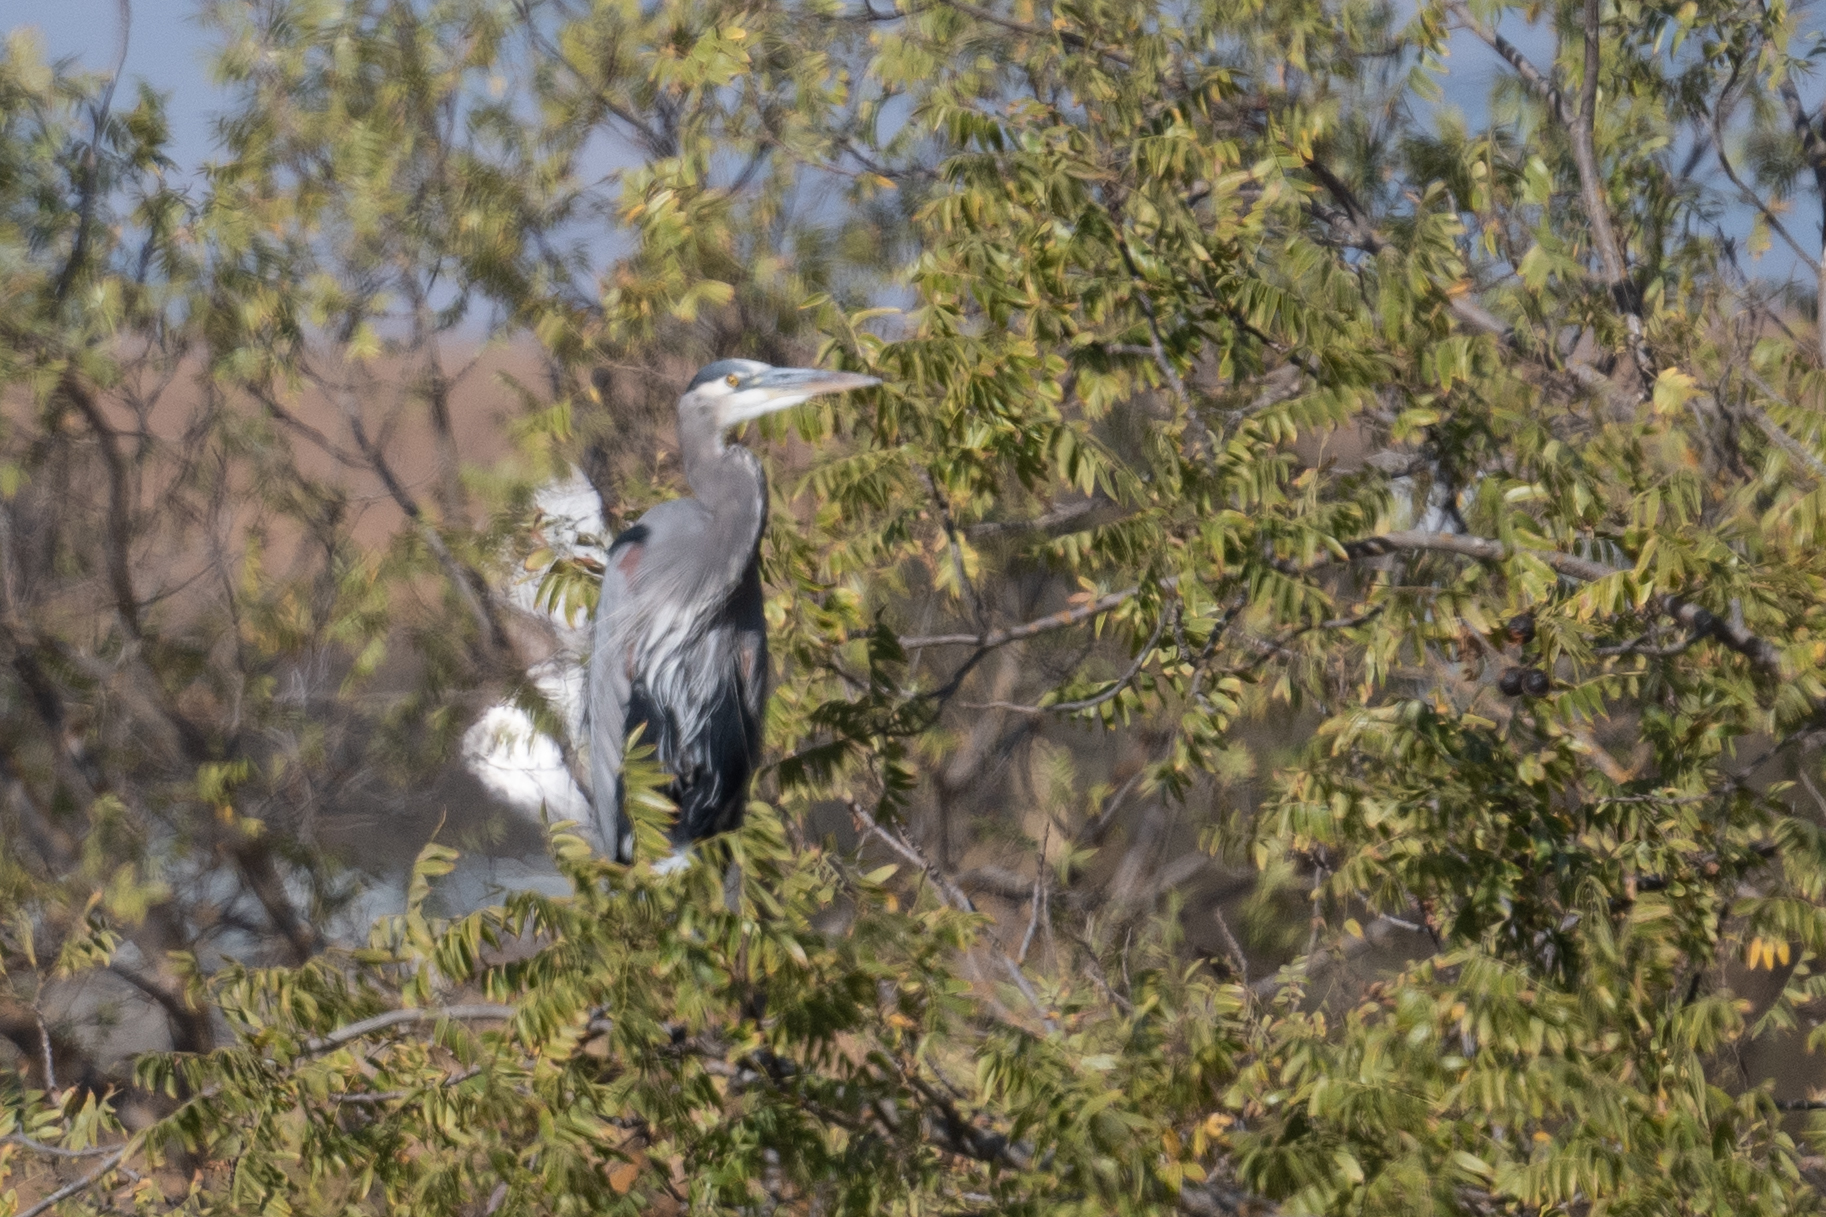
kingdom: Animalia
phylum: Chordata
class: Aves
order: Pelecaniformes
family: Ardeidae
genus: Ardea
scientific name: Ardea herodias
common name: Great blue heron
